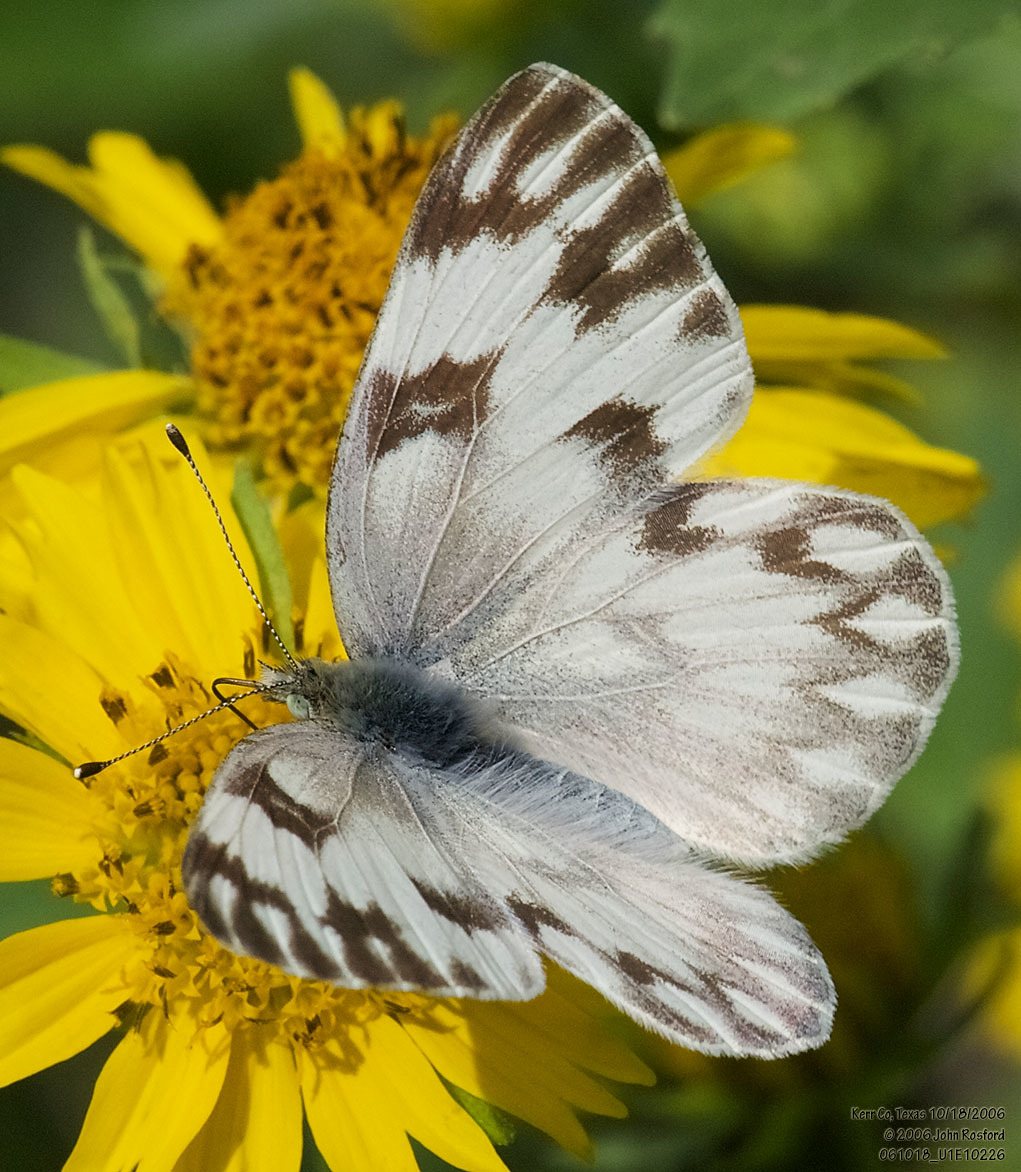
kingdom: Animalia
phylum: Arthropoda
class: Insecta
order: Lepidoptera
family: Pieridae
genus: Pontia
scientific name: Pontia protodice
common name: Checkered white
